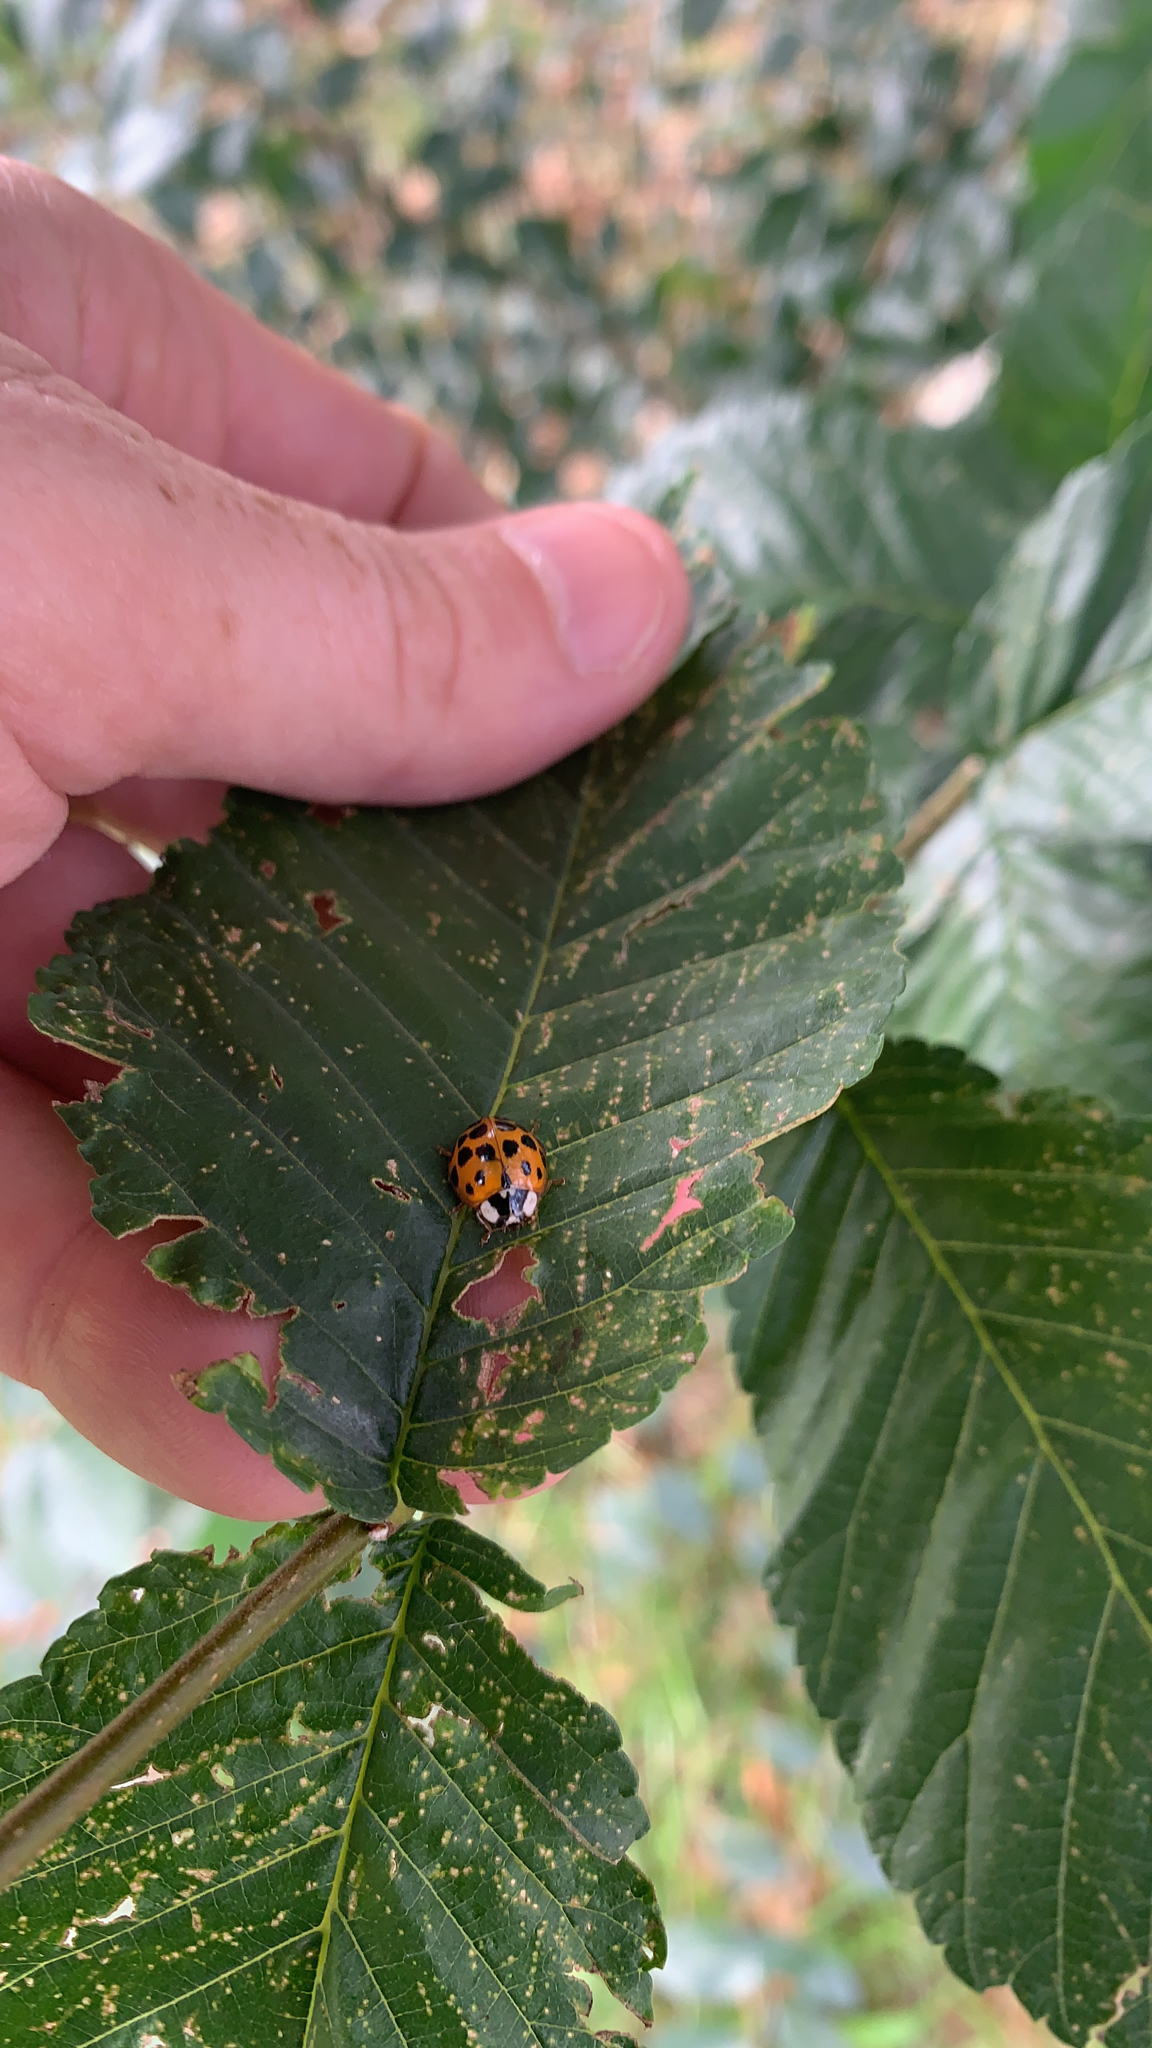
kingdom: Animalia
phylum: Arthropoda
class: Insecta
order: Coleoptera
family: Coccinellidae
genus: Harmonia
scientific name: Harmonia axyridis
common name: Harlequin ladybird
